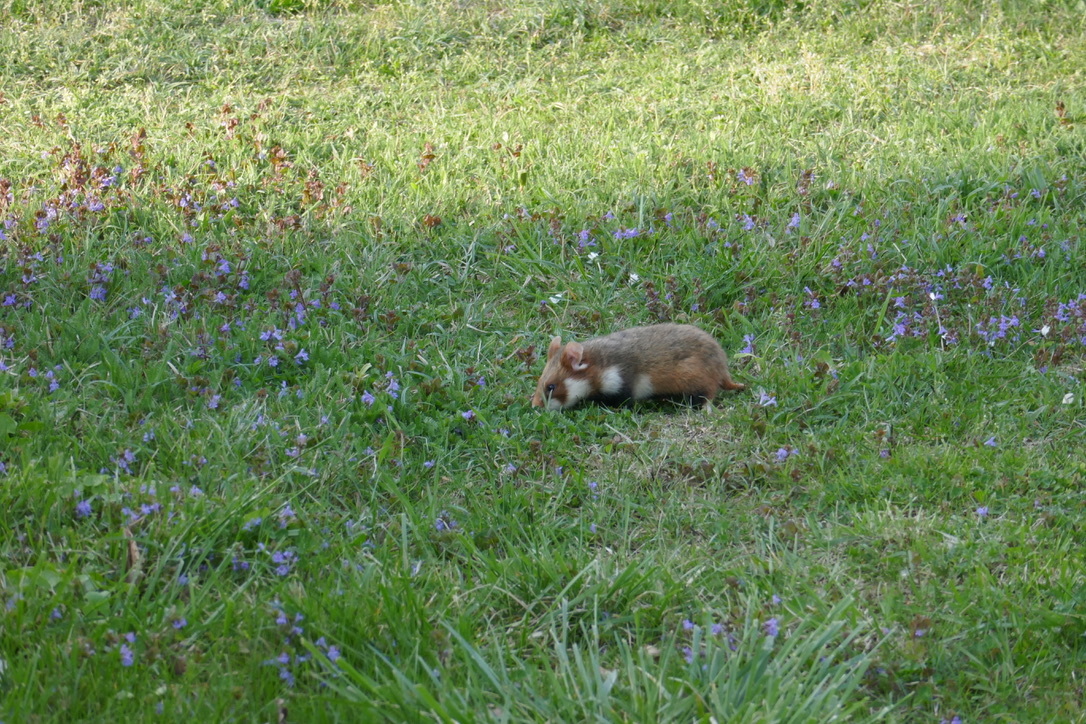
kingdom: Animalia
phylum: Chordata
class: Mammalia
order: Rodentia
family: Cricetidae
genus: Cricetus
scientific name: Cricetus cricetus
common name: Common hamster
